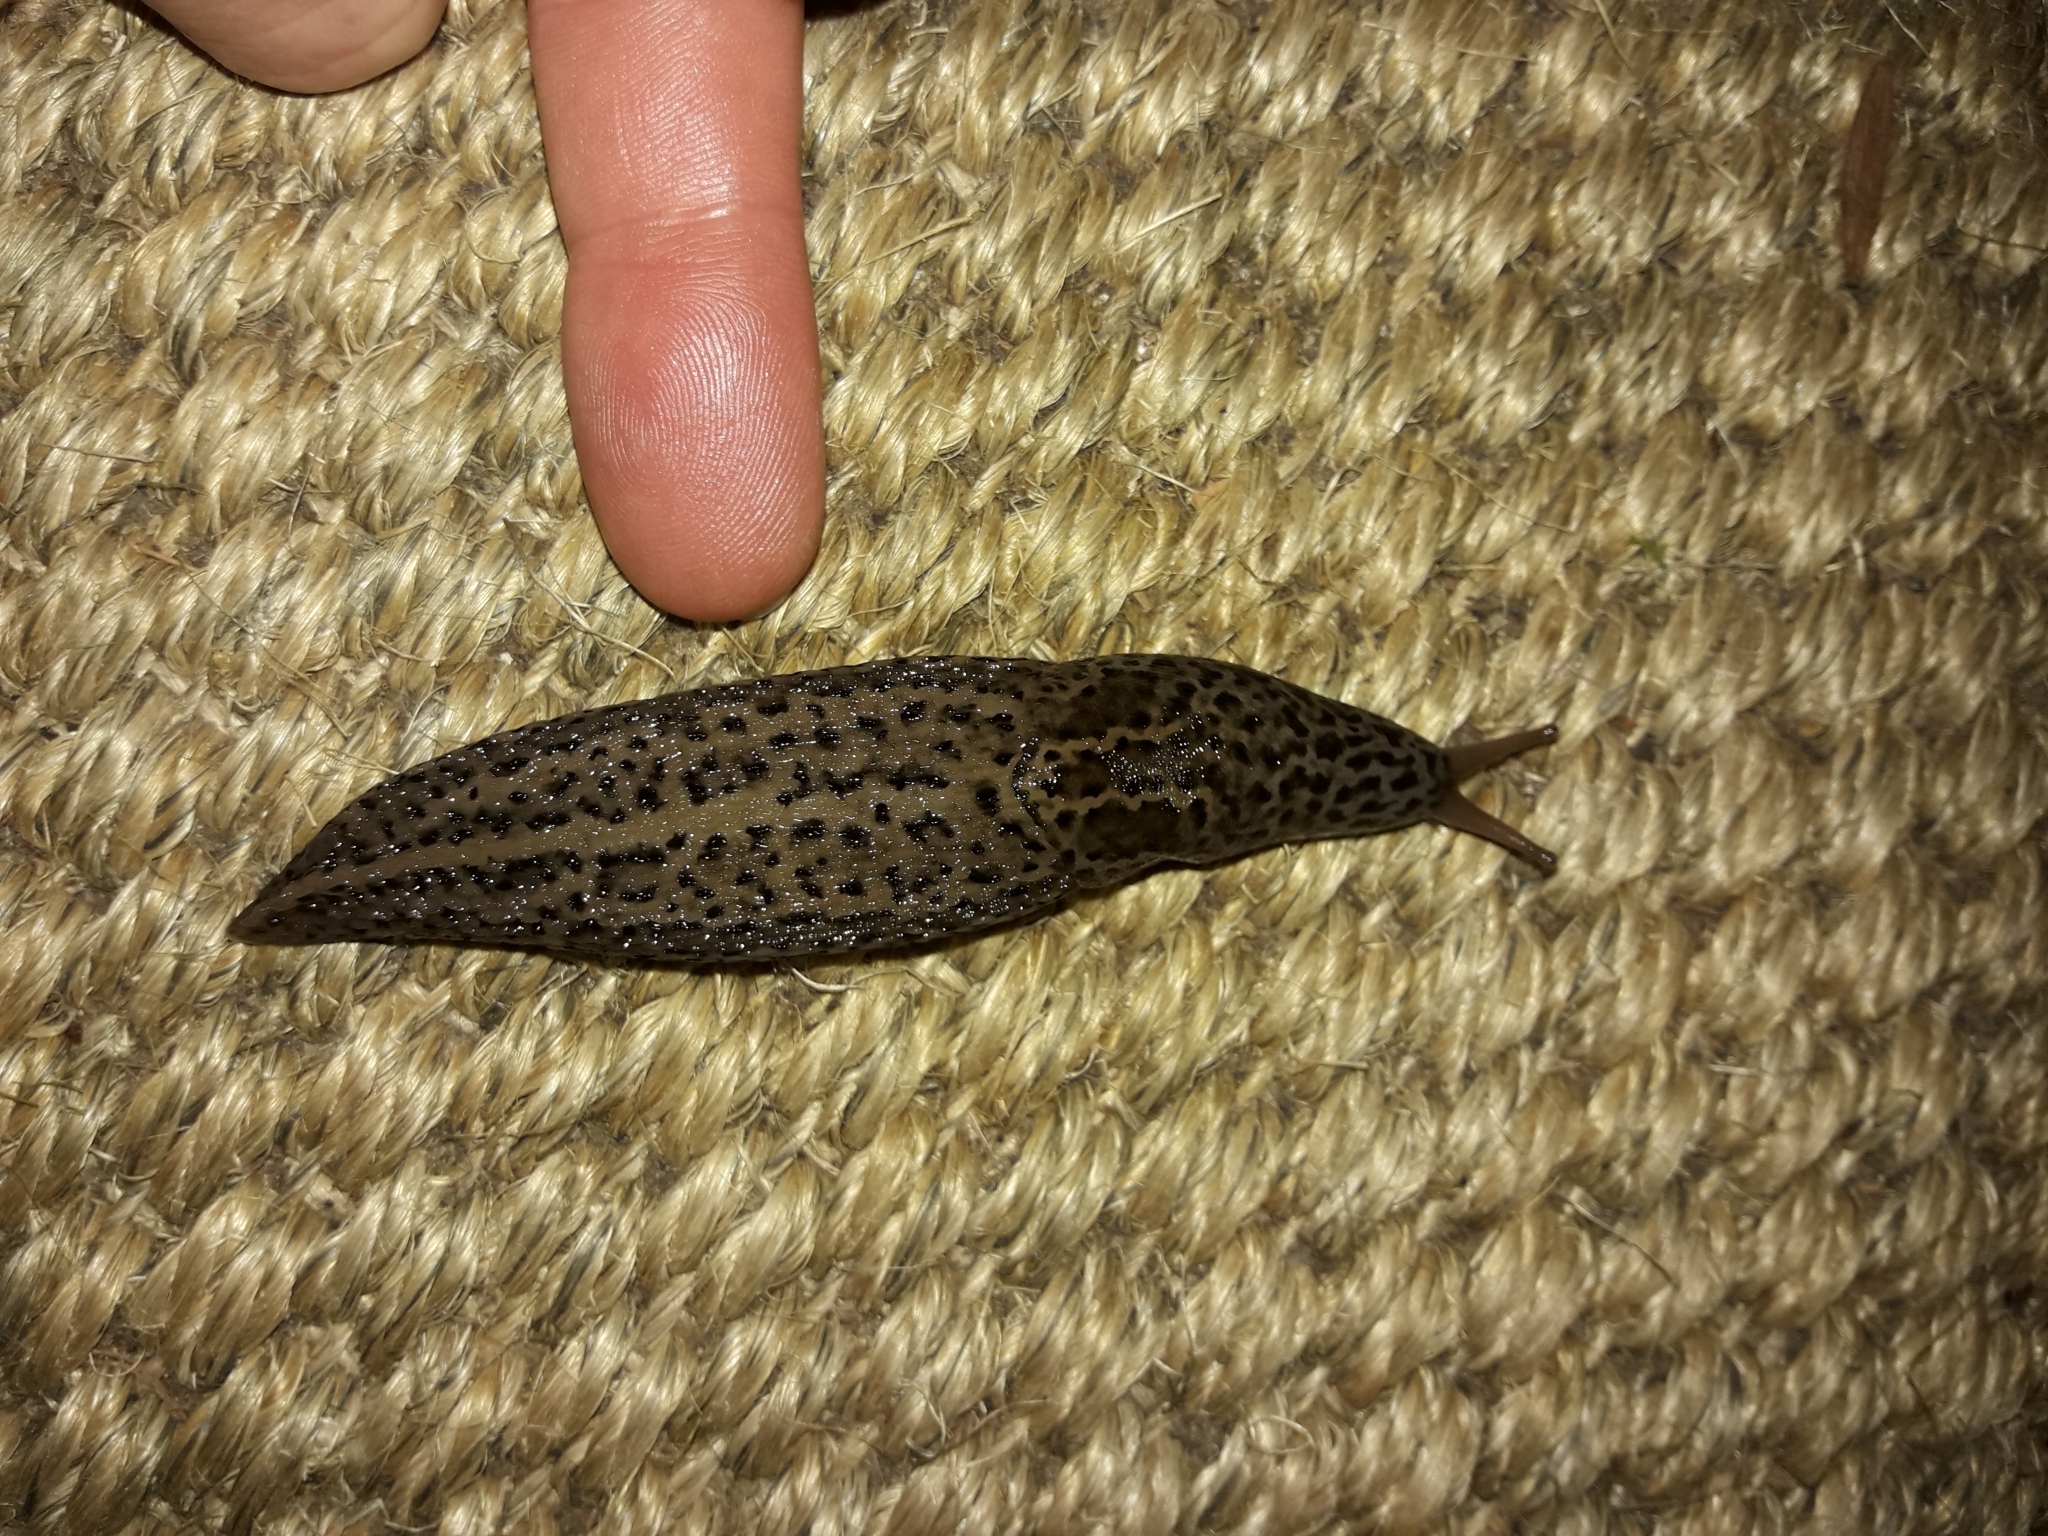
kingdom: Animalia
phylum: Mollusca
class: Gastropoda
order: Stylommatophora
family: Limacidae
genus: Limax
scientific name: Limax maximus
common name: Great grey slug
